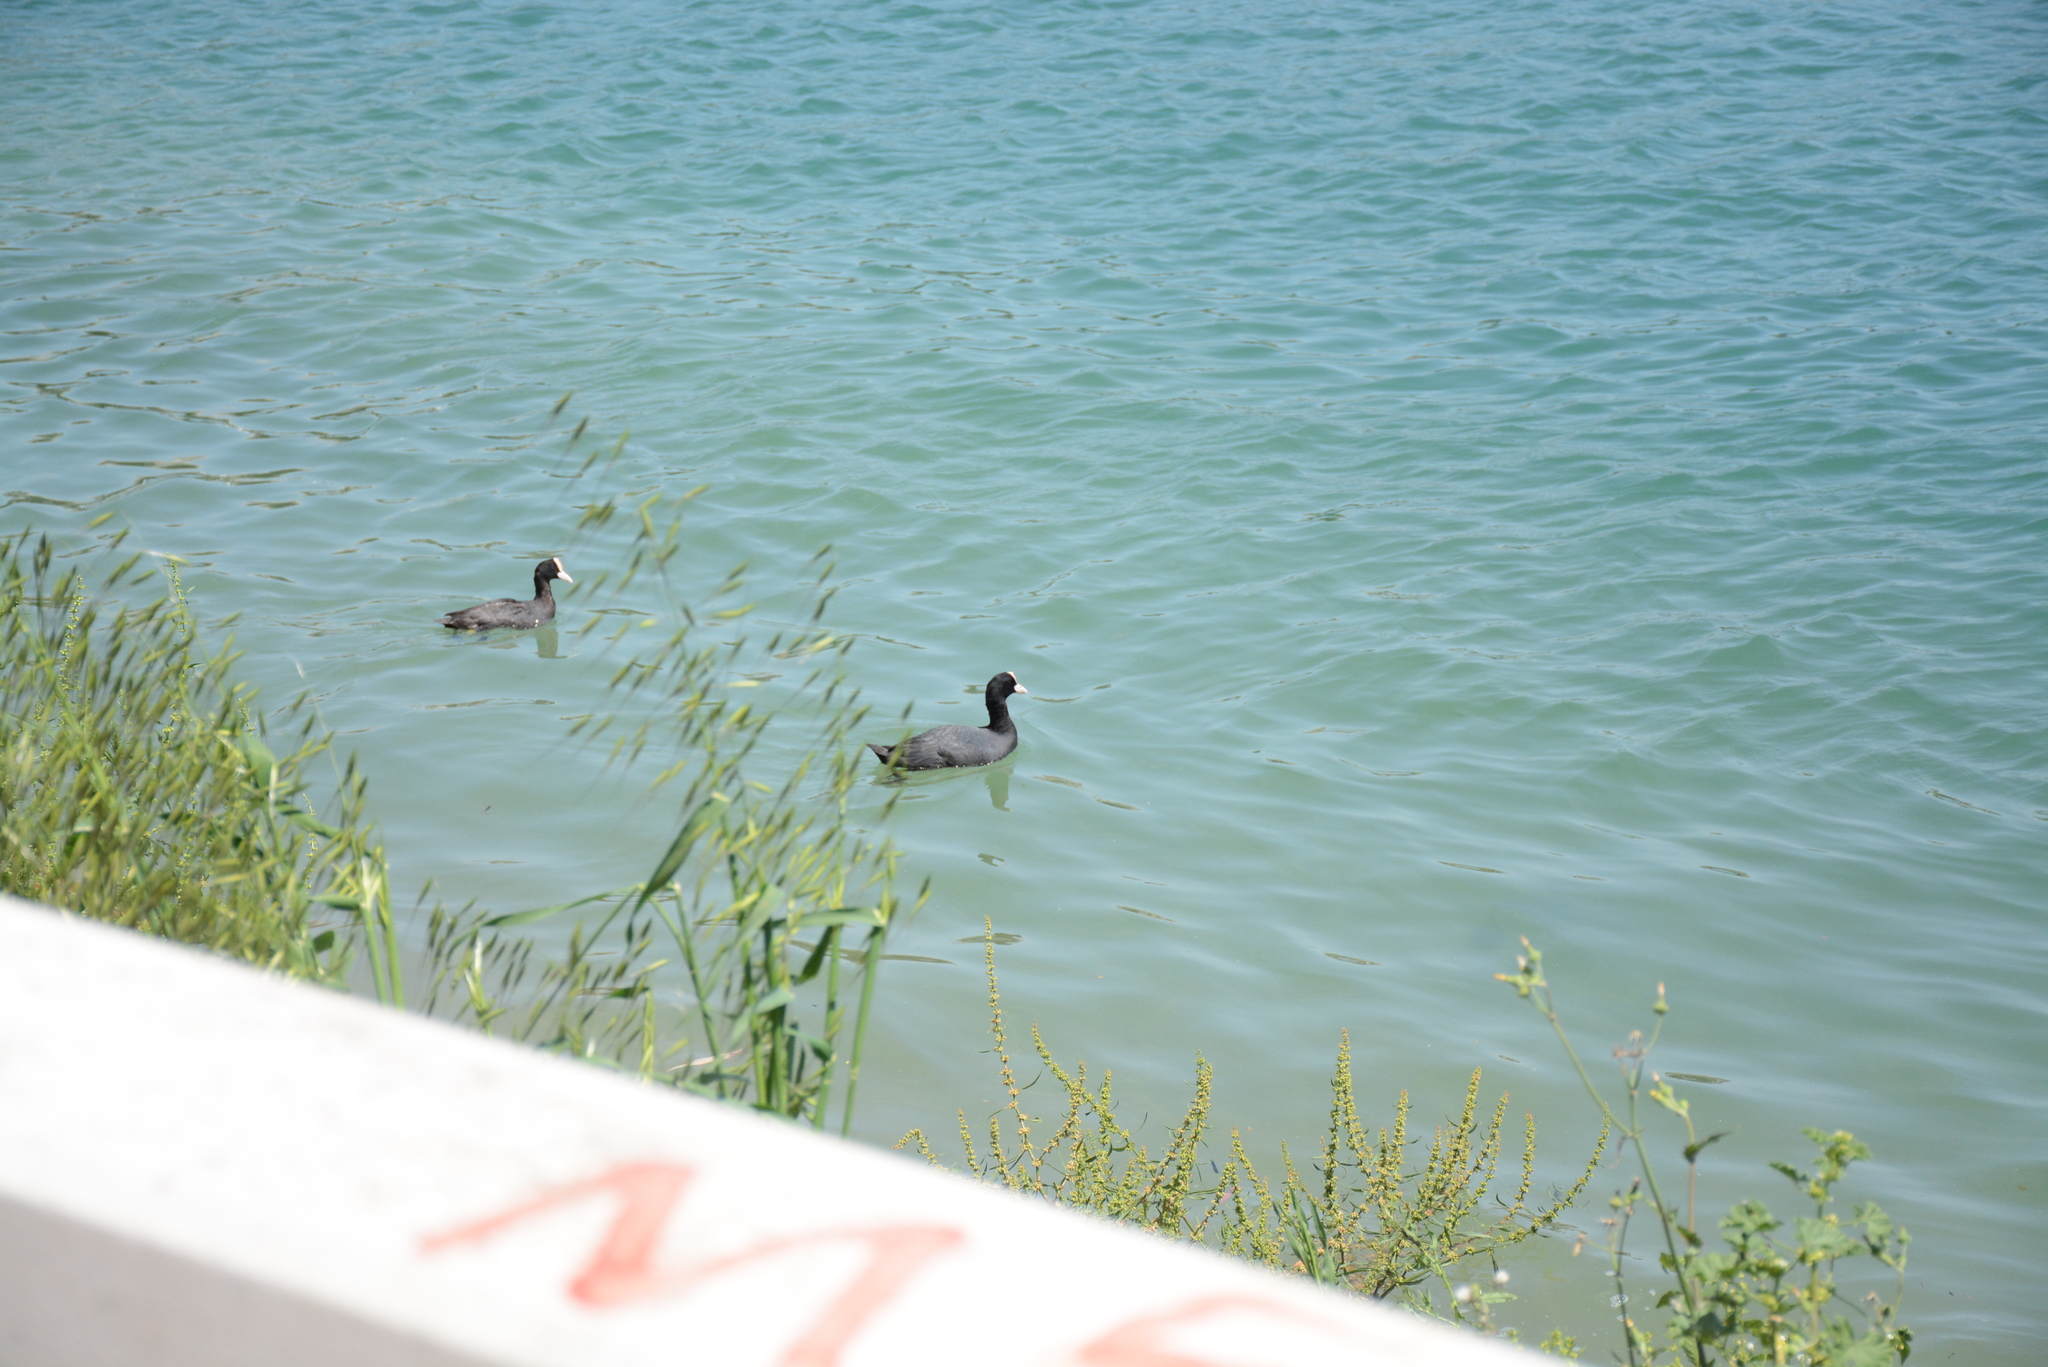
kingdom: Animalia
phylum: Chordata
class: Aves
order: Gruiformes
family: Rallidae
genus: Fulica
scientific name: Fulica atra
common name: Eurasian coot
